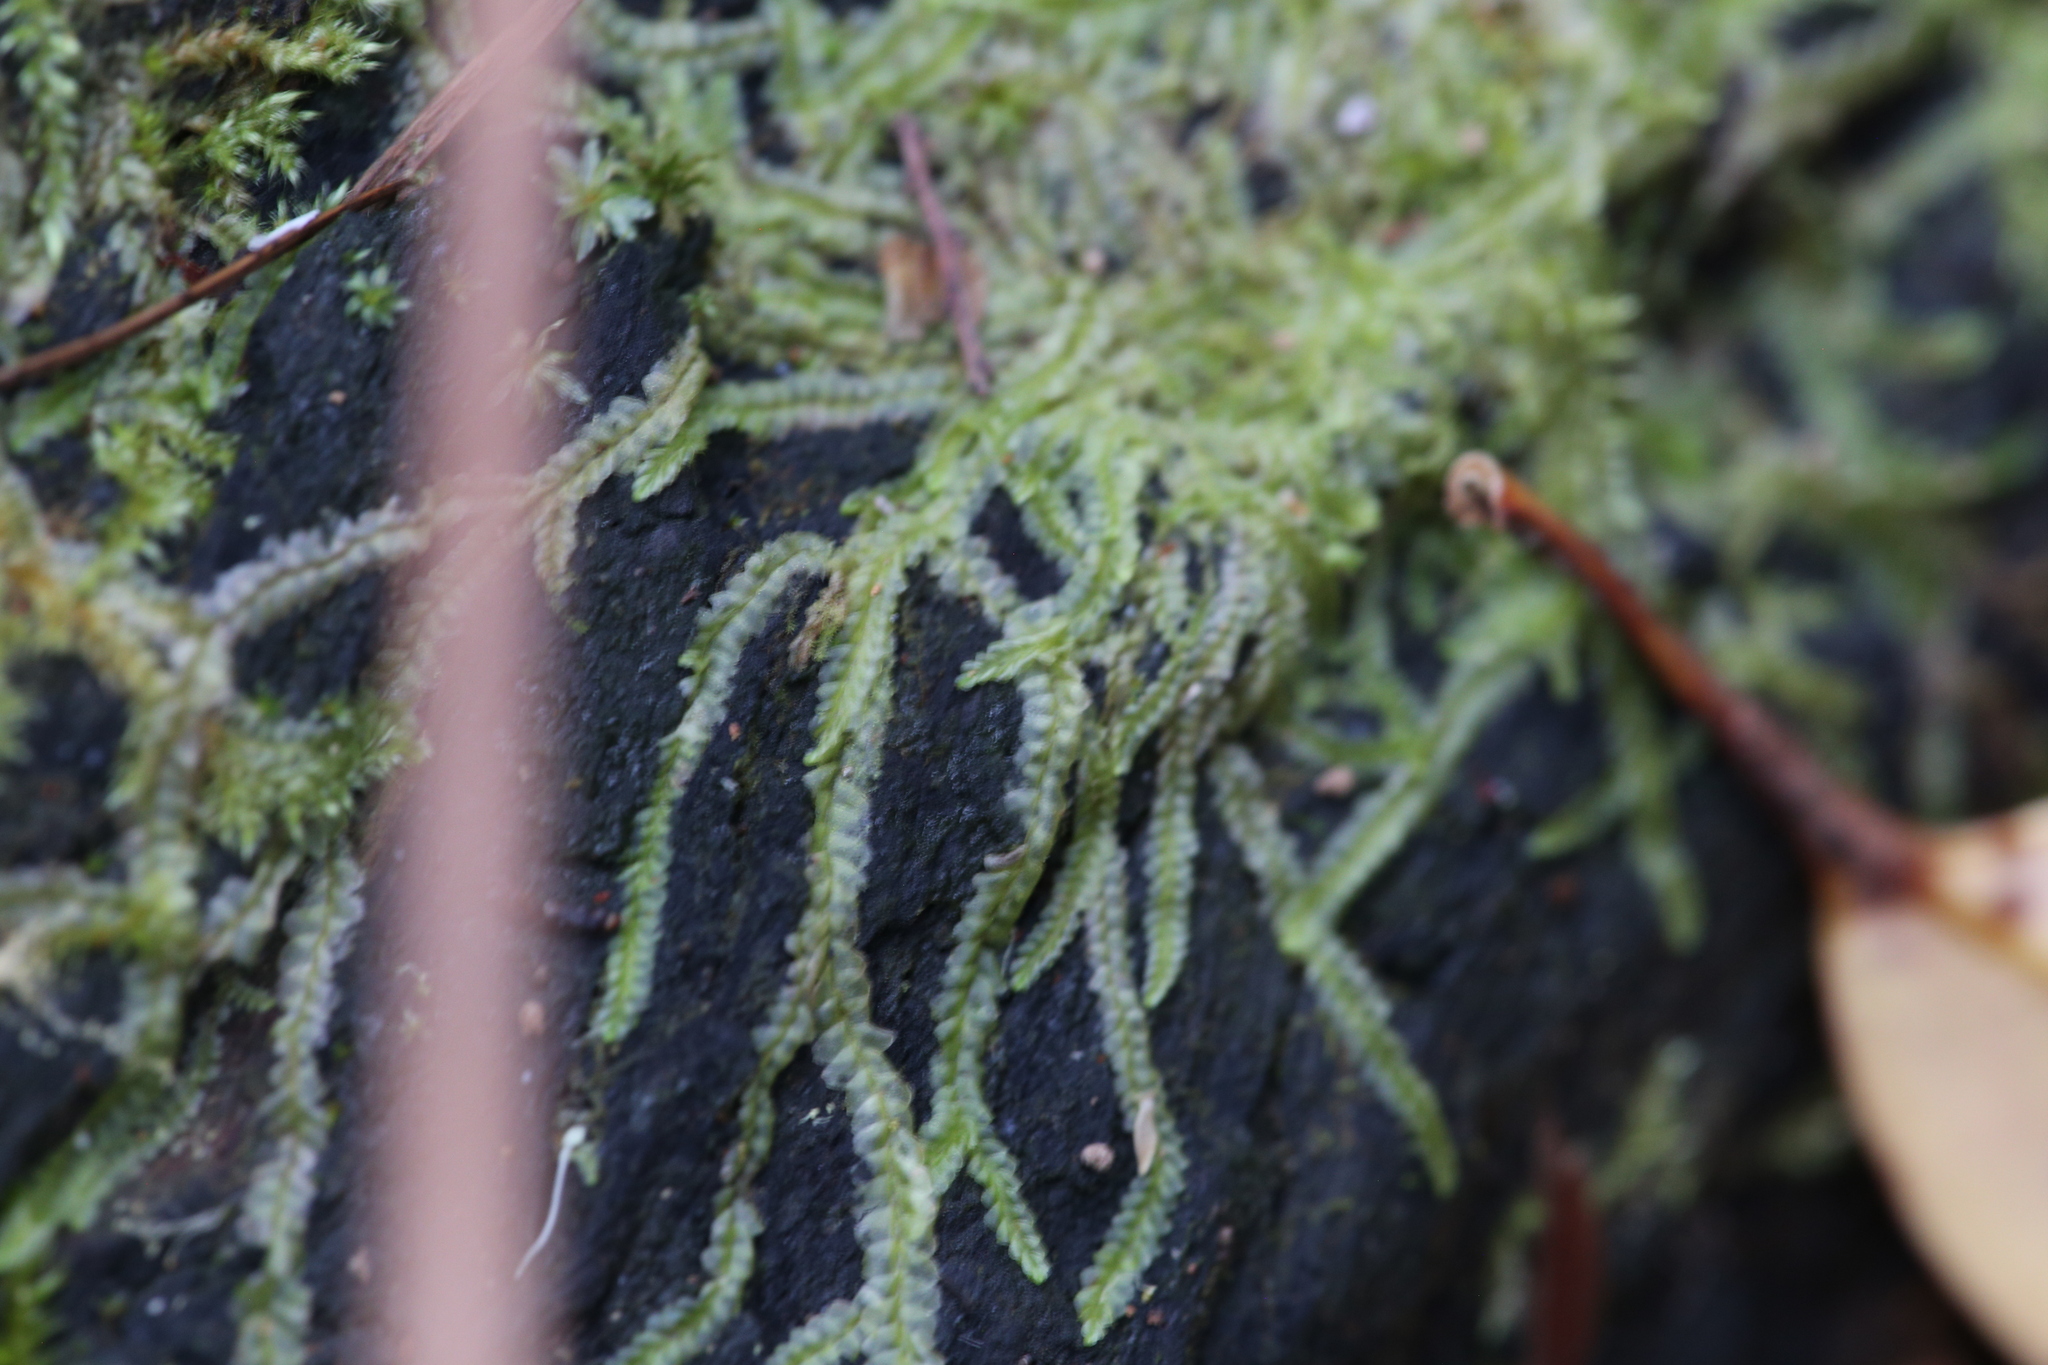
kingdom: Plantae
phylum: Marchantiophyta
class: Jungermanniopsida
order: Jungermanniales
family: Lophocoleaceae
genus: Lophocolea
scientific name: Lophocolea semiteres
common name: Southern crestwort
